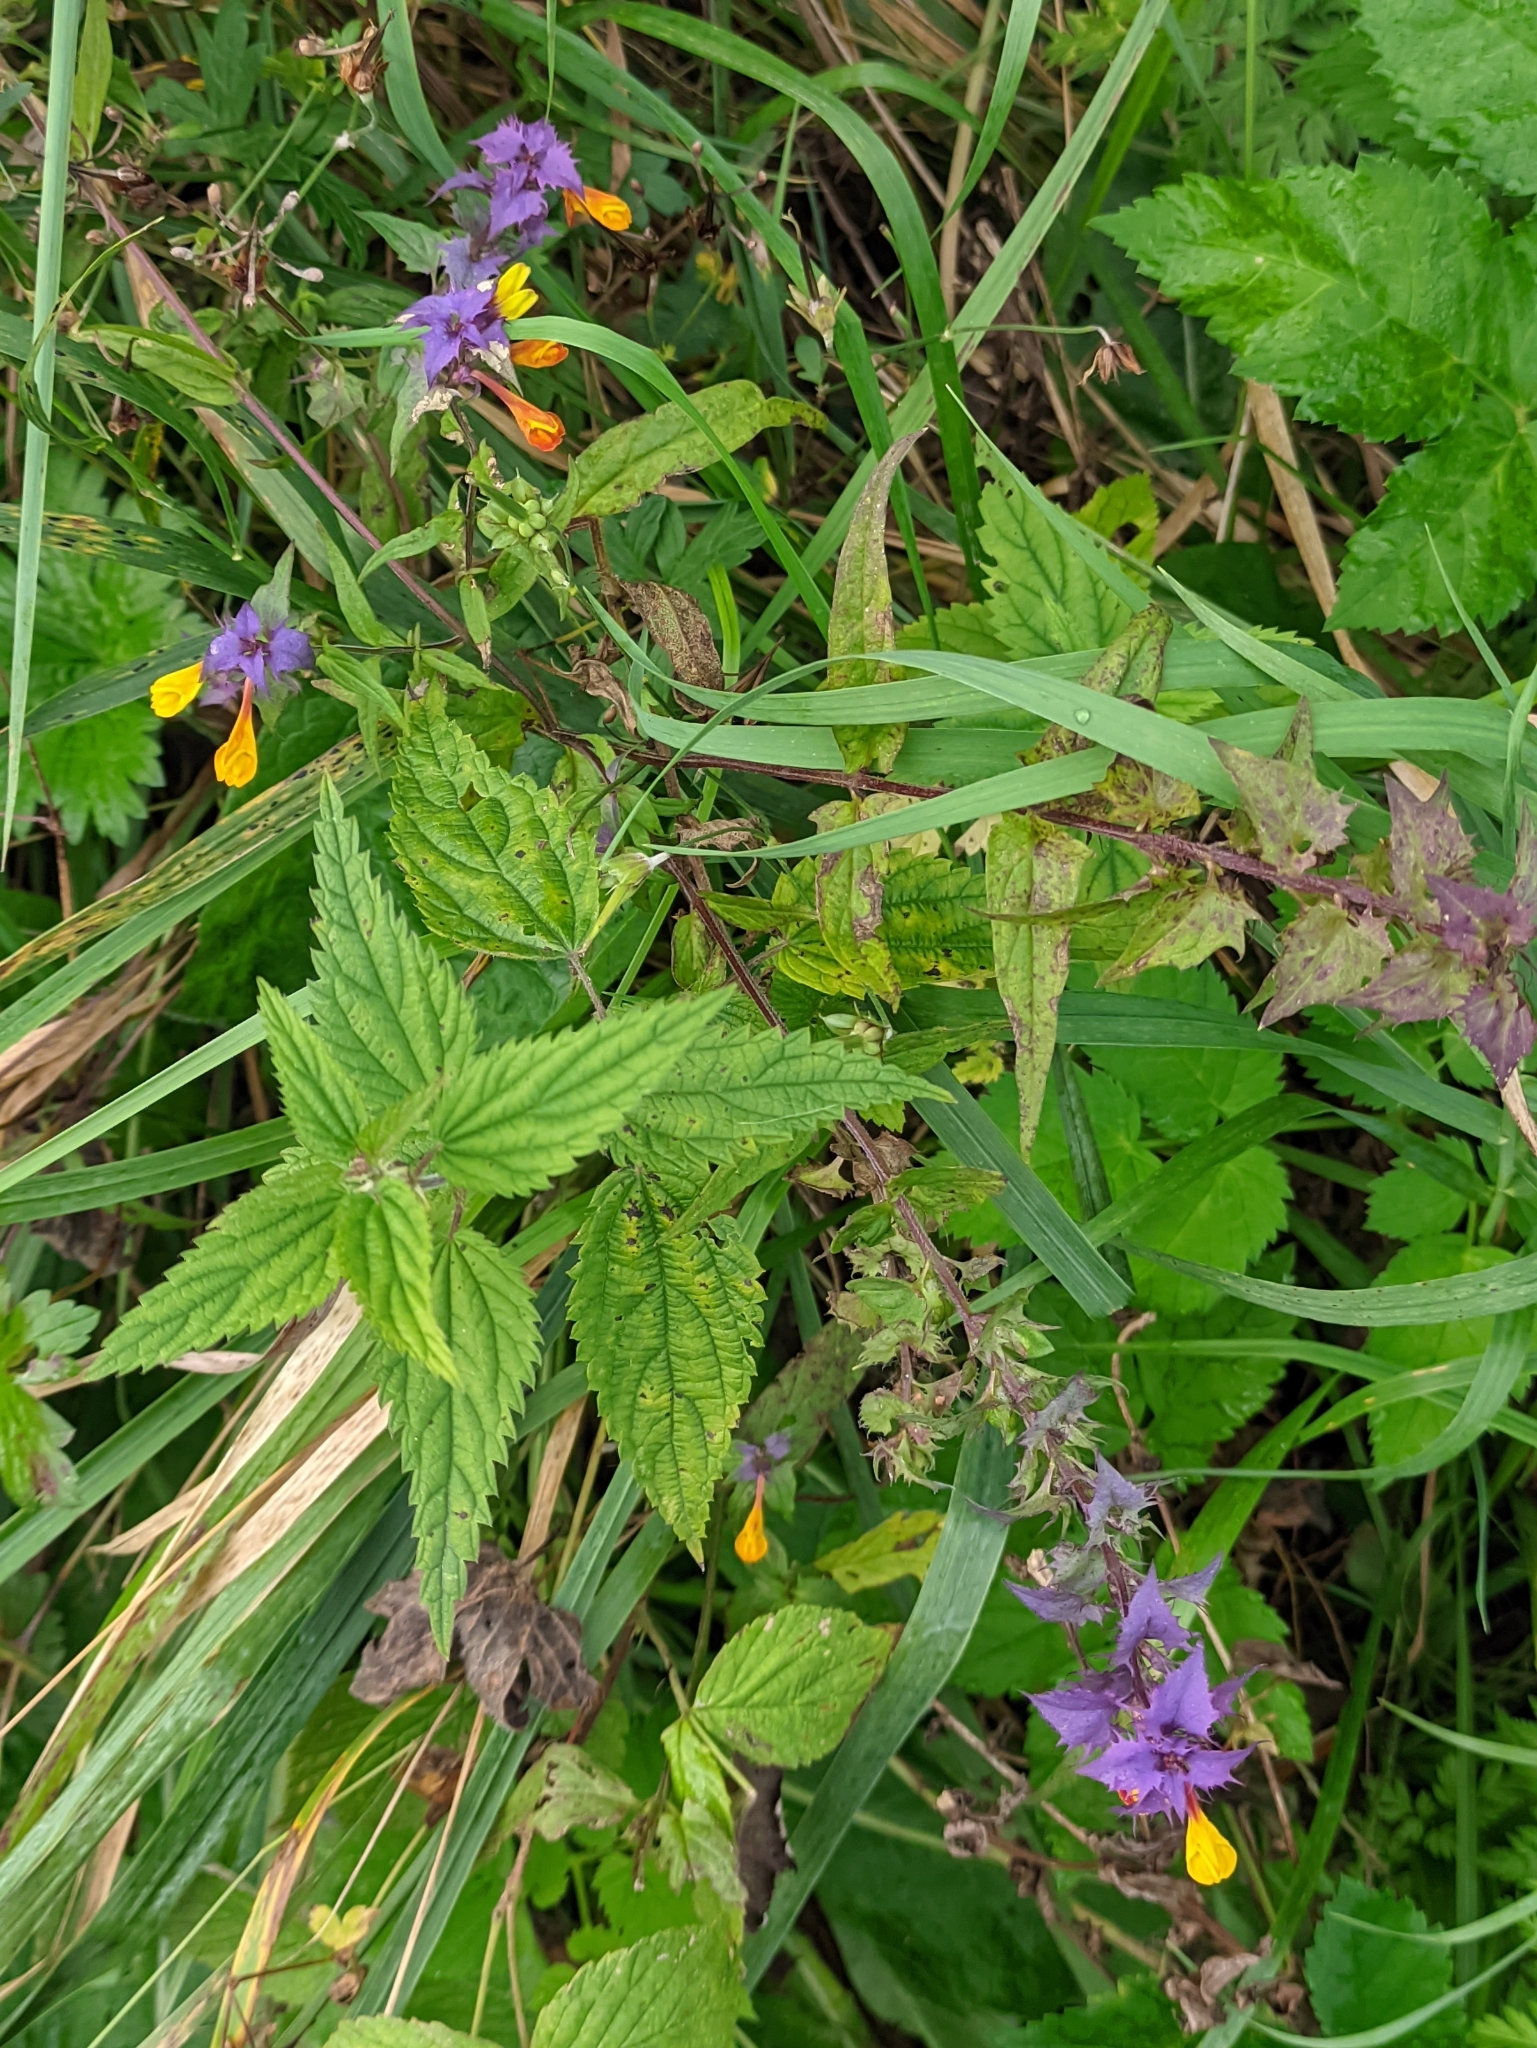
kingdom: Plantae
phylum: Tracheophyta
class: Magnoliopsida
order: Lamiales
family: Orobanchaceae
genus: Melampyrum
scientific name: Melampyrum nemorosum
